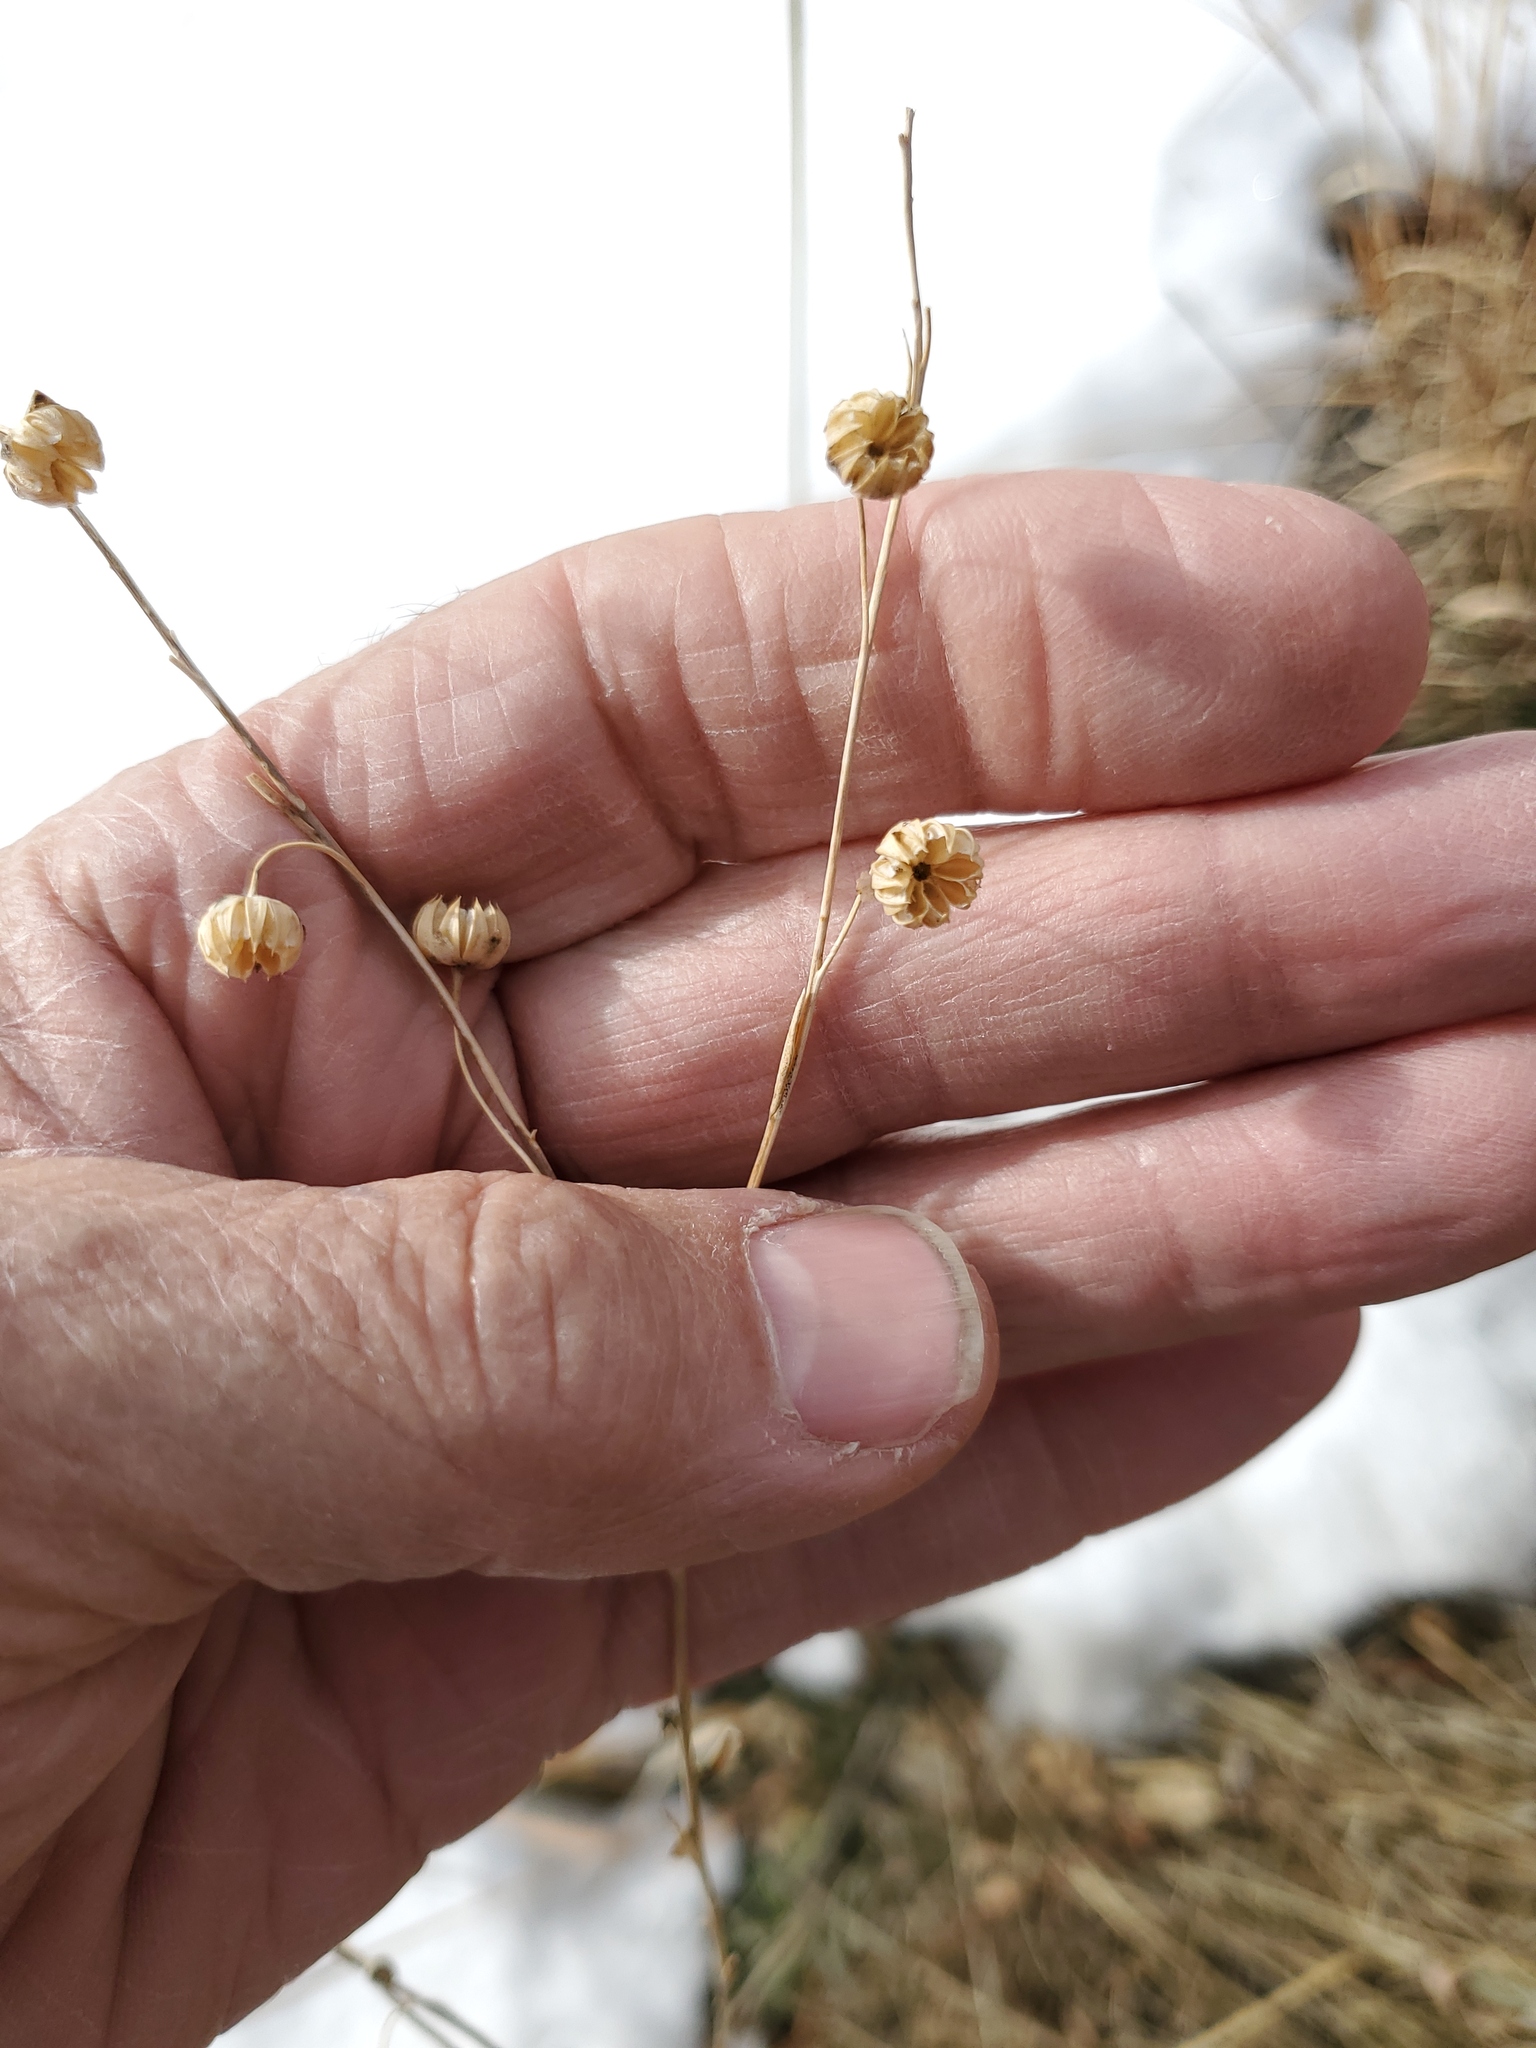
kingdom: Plantae
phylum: Tracheophyta
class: Magnoliopsida
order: Malpighiales
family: Linaceae
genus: Linum
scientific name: Linum lewisii
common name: Prairie flax
